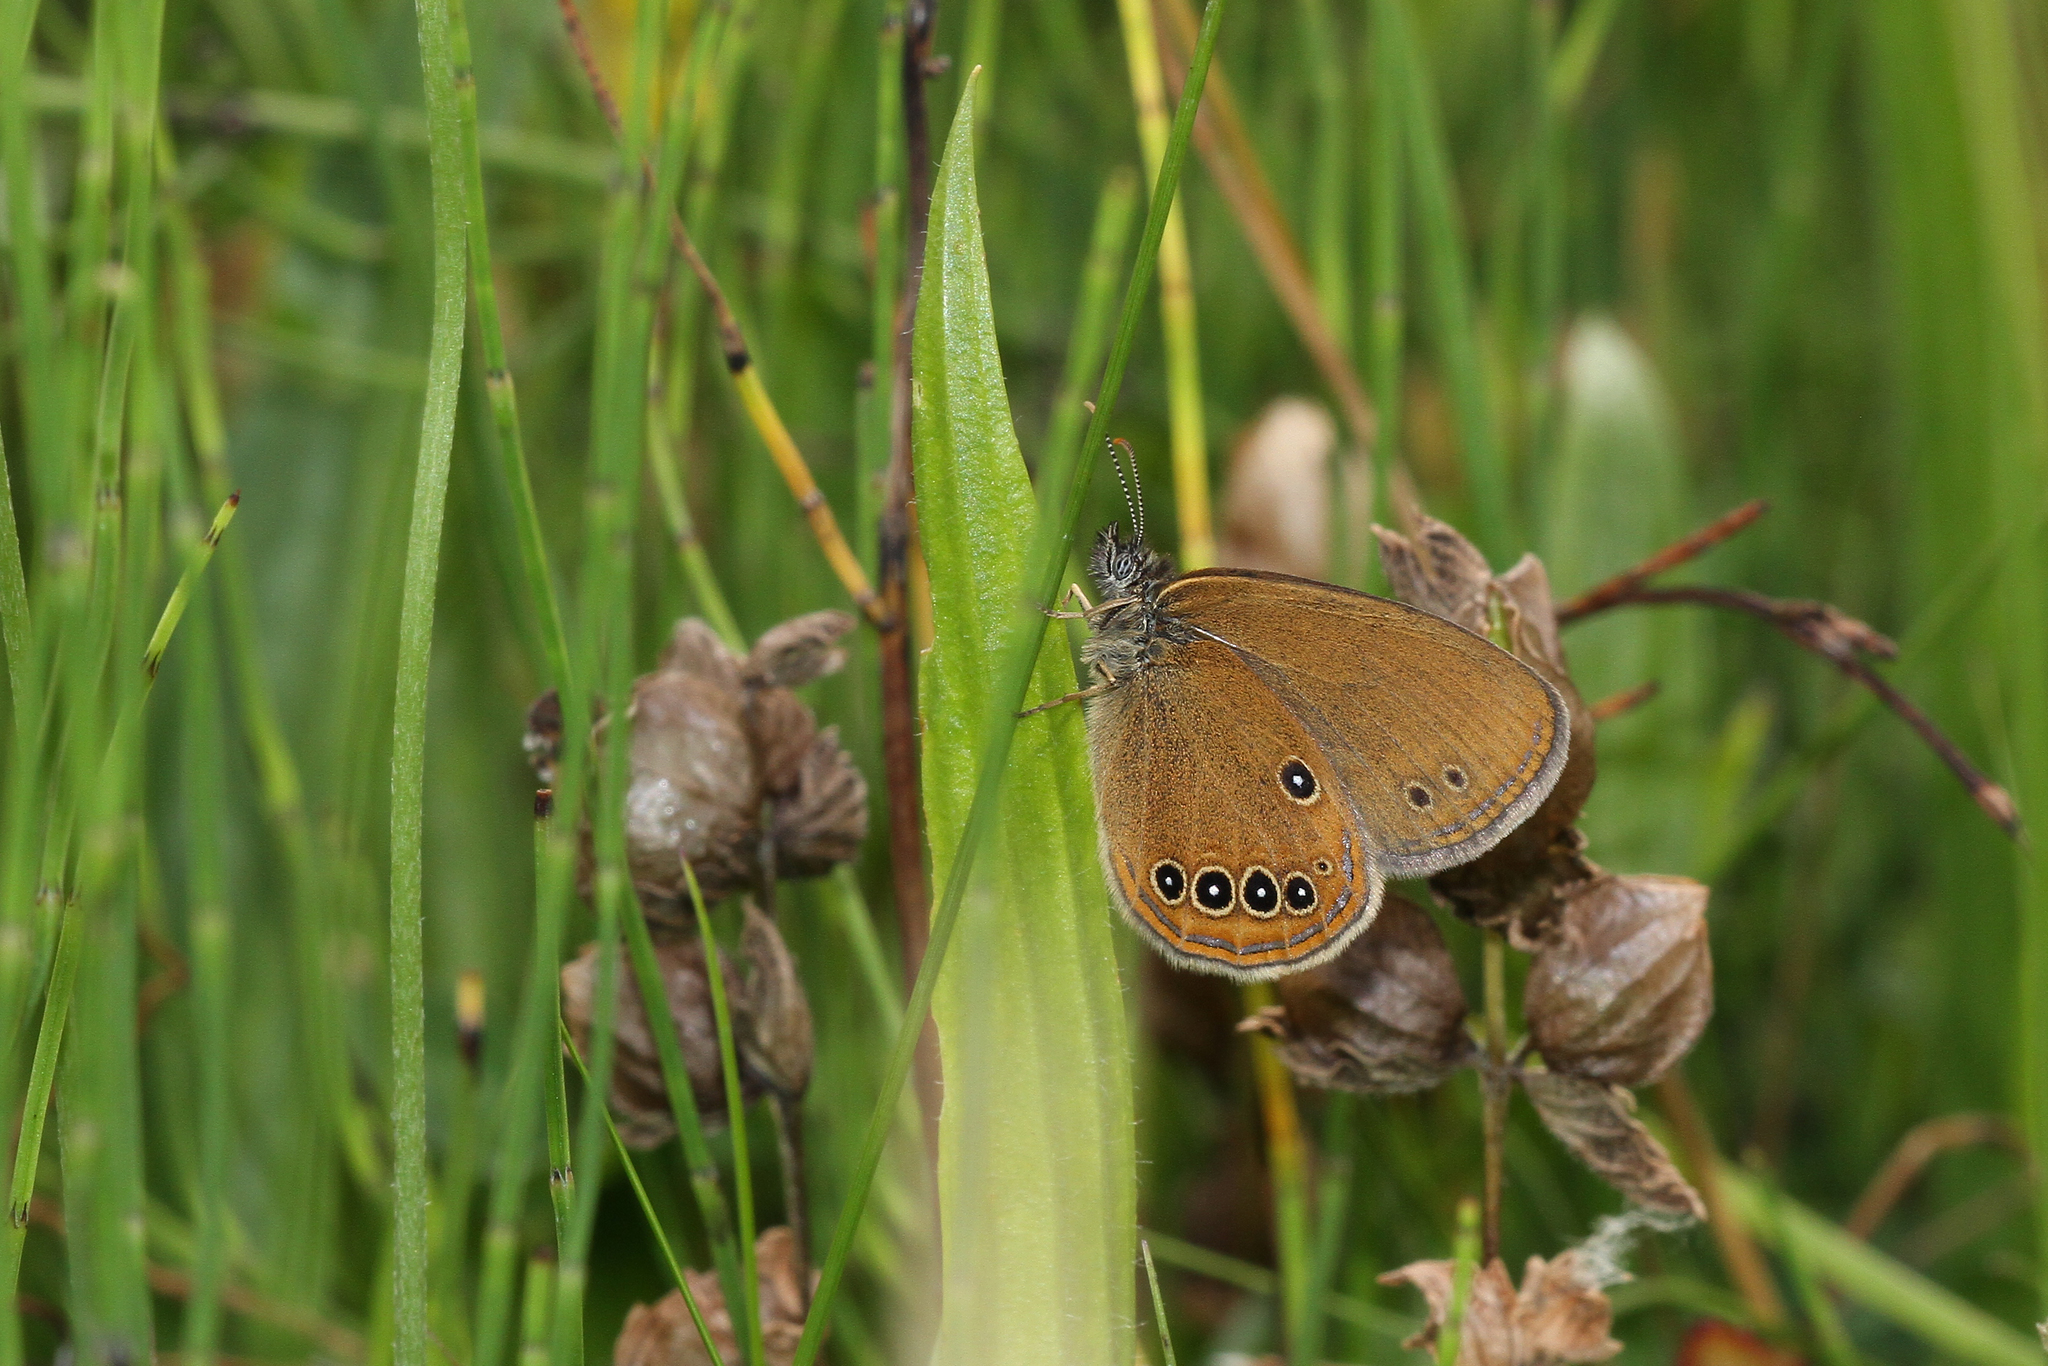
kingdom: Animalia
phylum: Arthropoda
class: Insecta
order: Lepidoptera
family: Nymphalidae
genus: Coenonympha
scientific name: Coenonympha oedippus
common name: False ringlet
